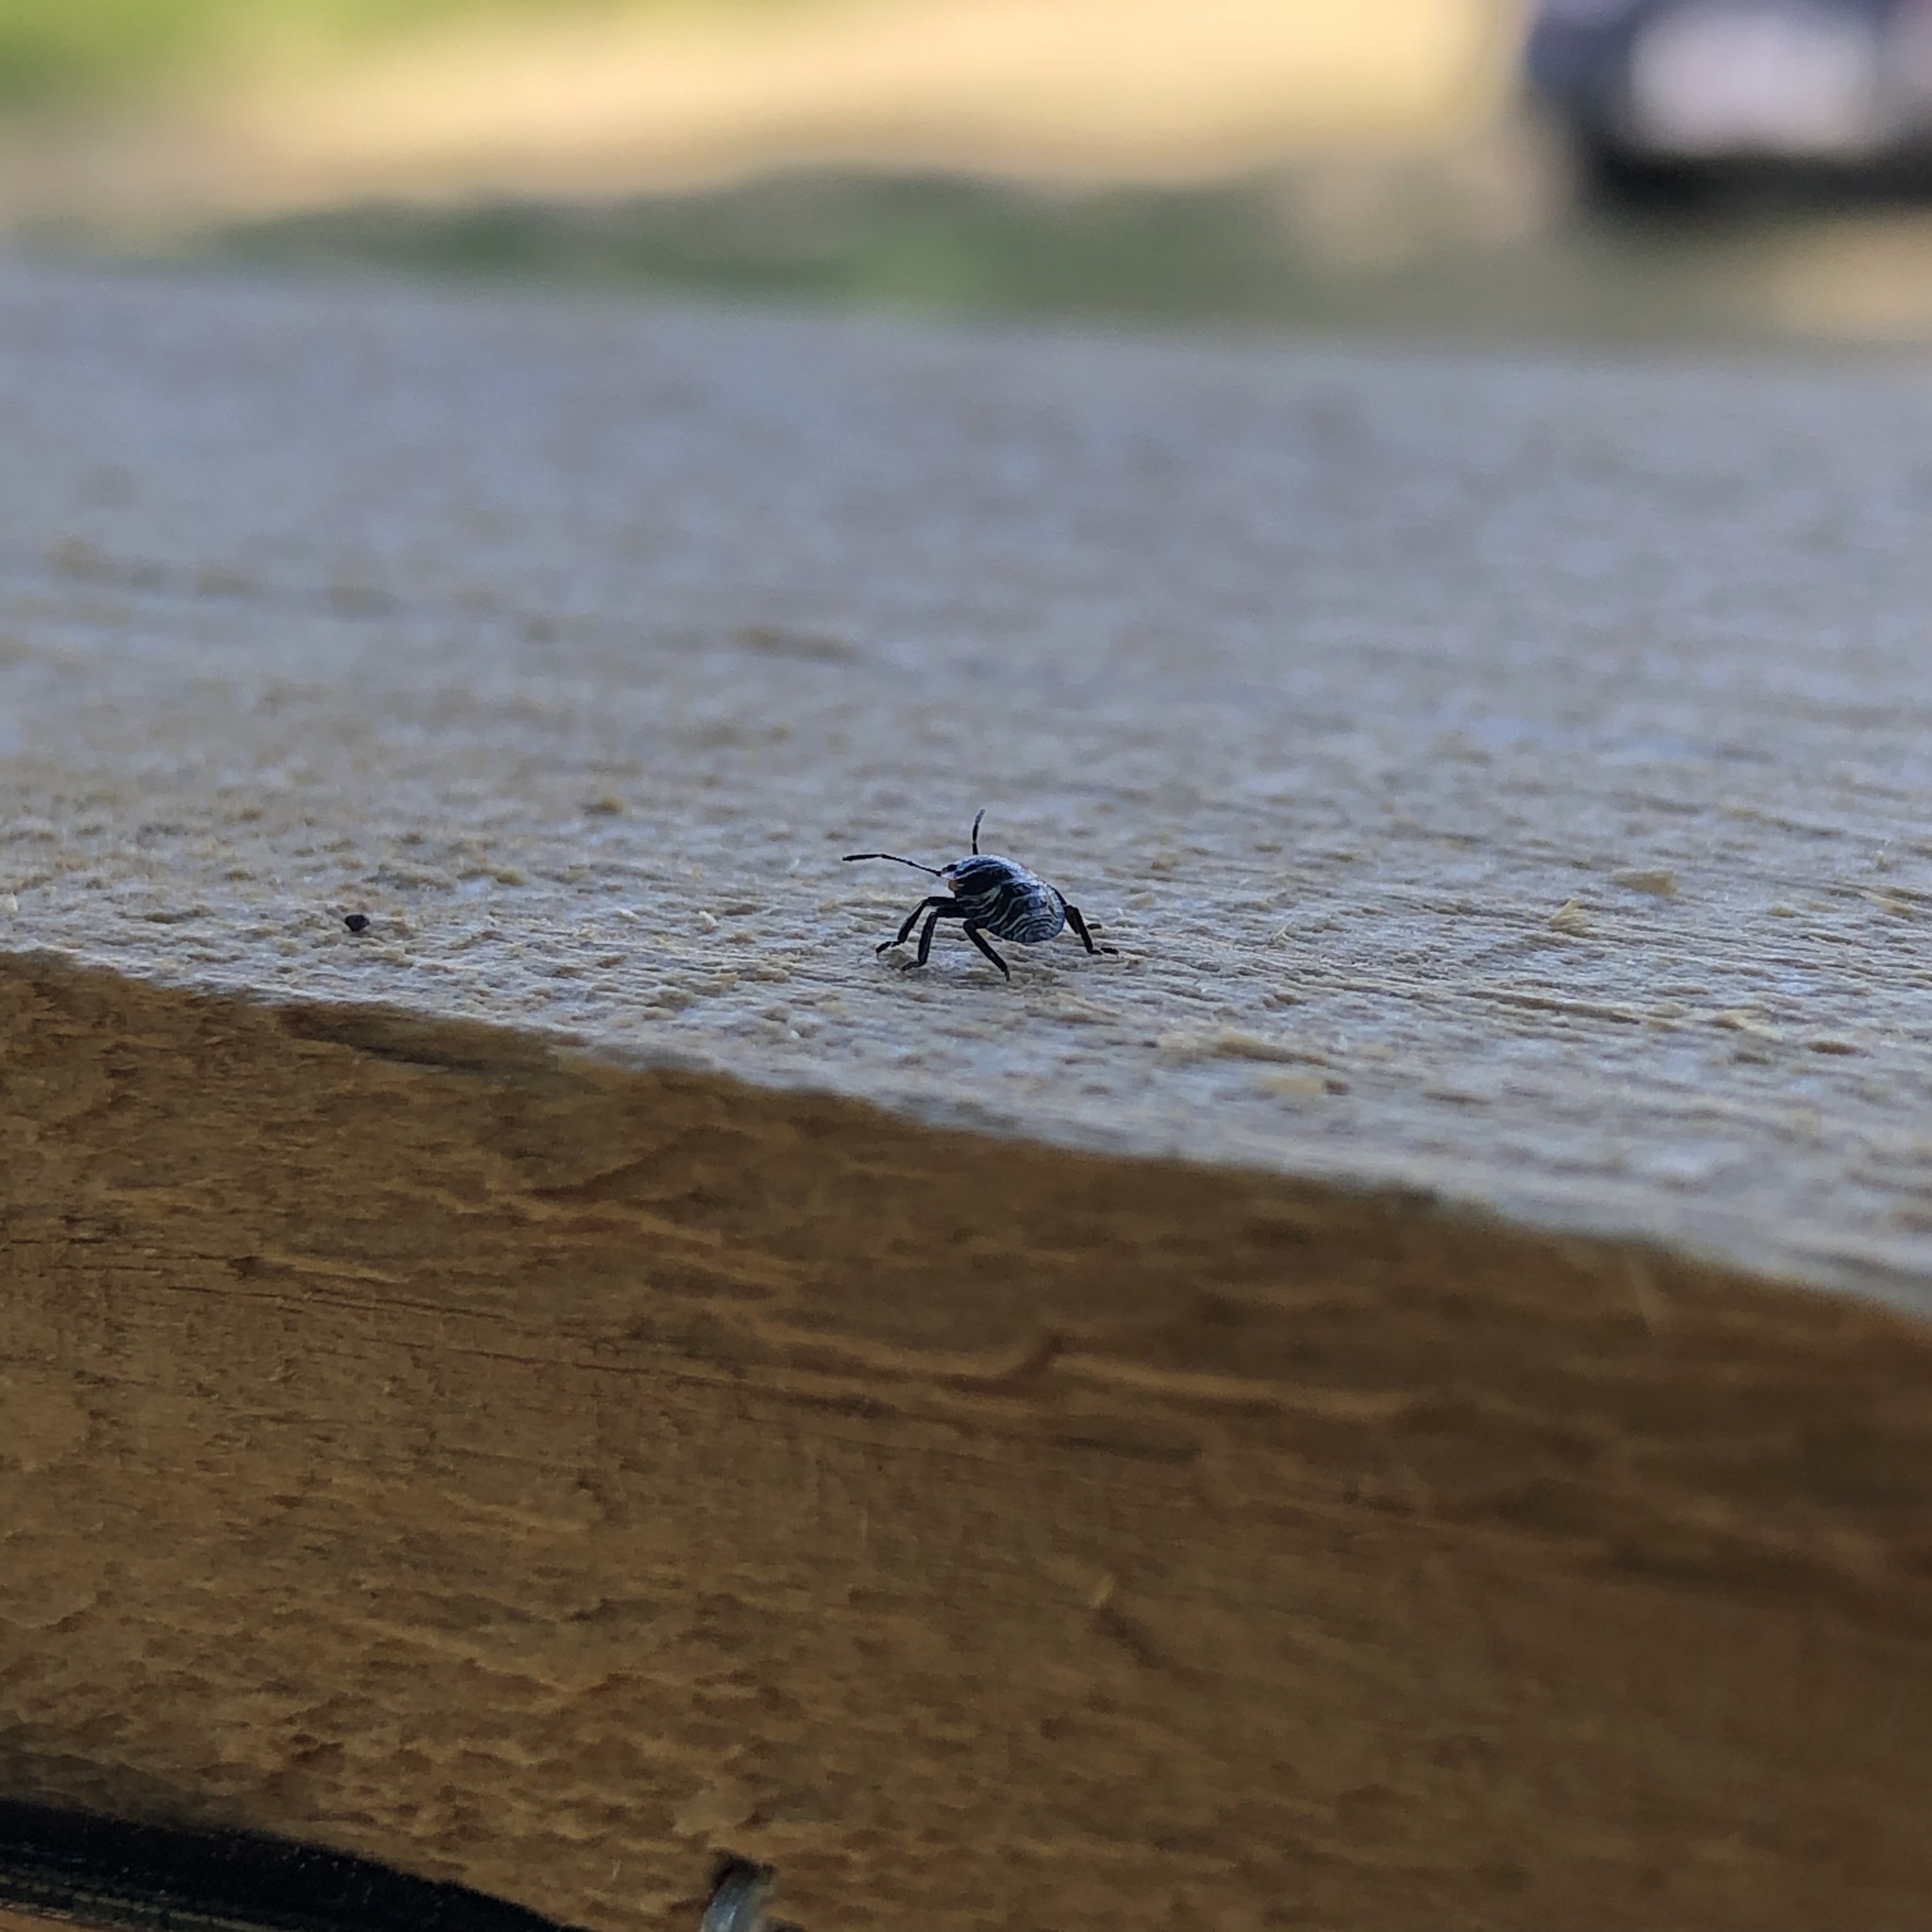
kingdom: Animalia
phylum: Arthropoda
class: Insecta
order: Hemiptera
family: Pentatomidae
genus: Chinavia
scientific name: Chinavia hilaris
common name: Green stink bug
